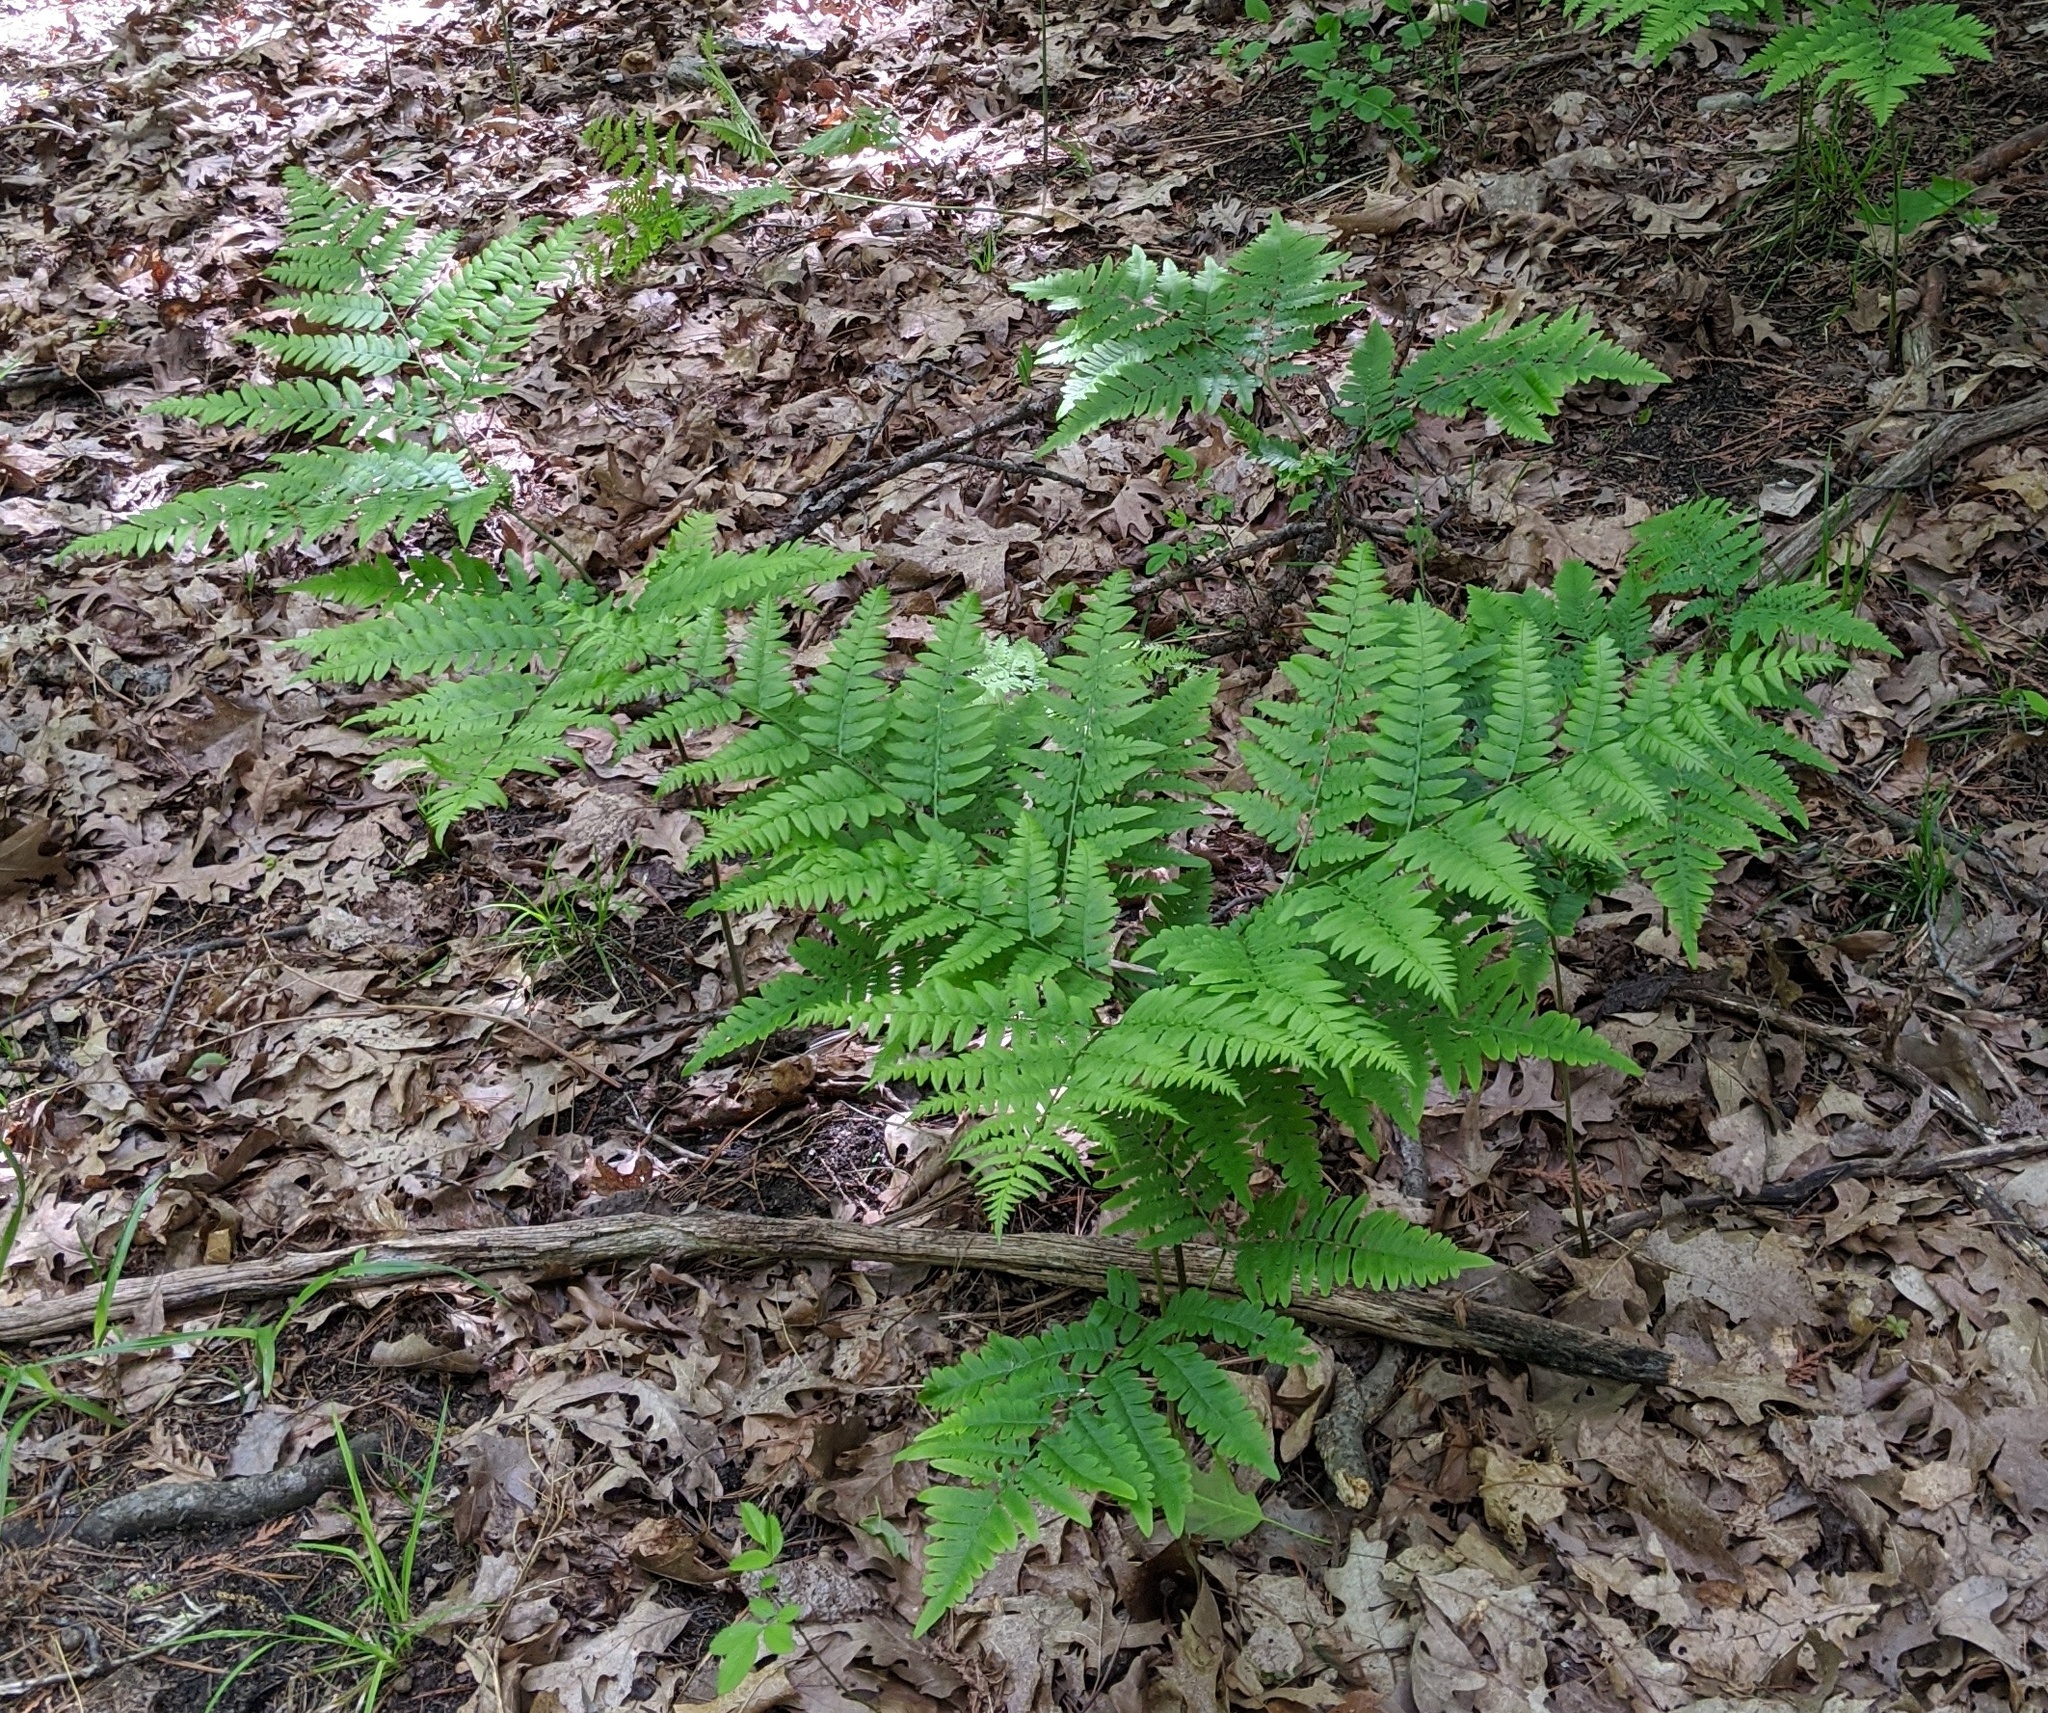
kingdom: Plantae
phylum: Tracheophyta
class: Polypodiopsida
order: Polypodiales
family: Dennstaedtiaceae
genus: Pteridium
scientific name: Pteridium aquilinum
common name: Bracken
